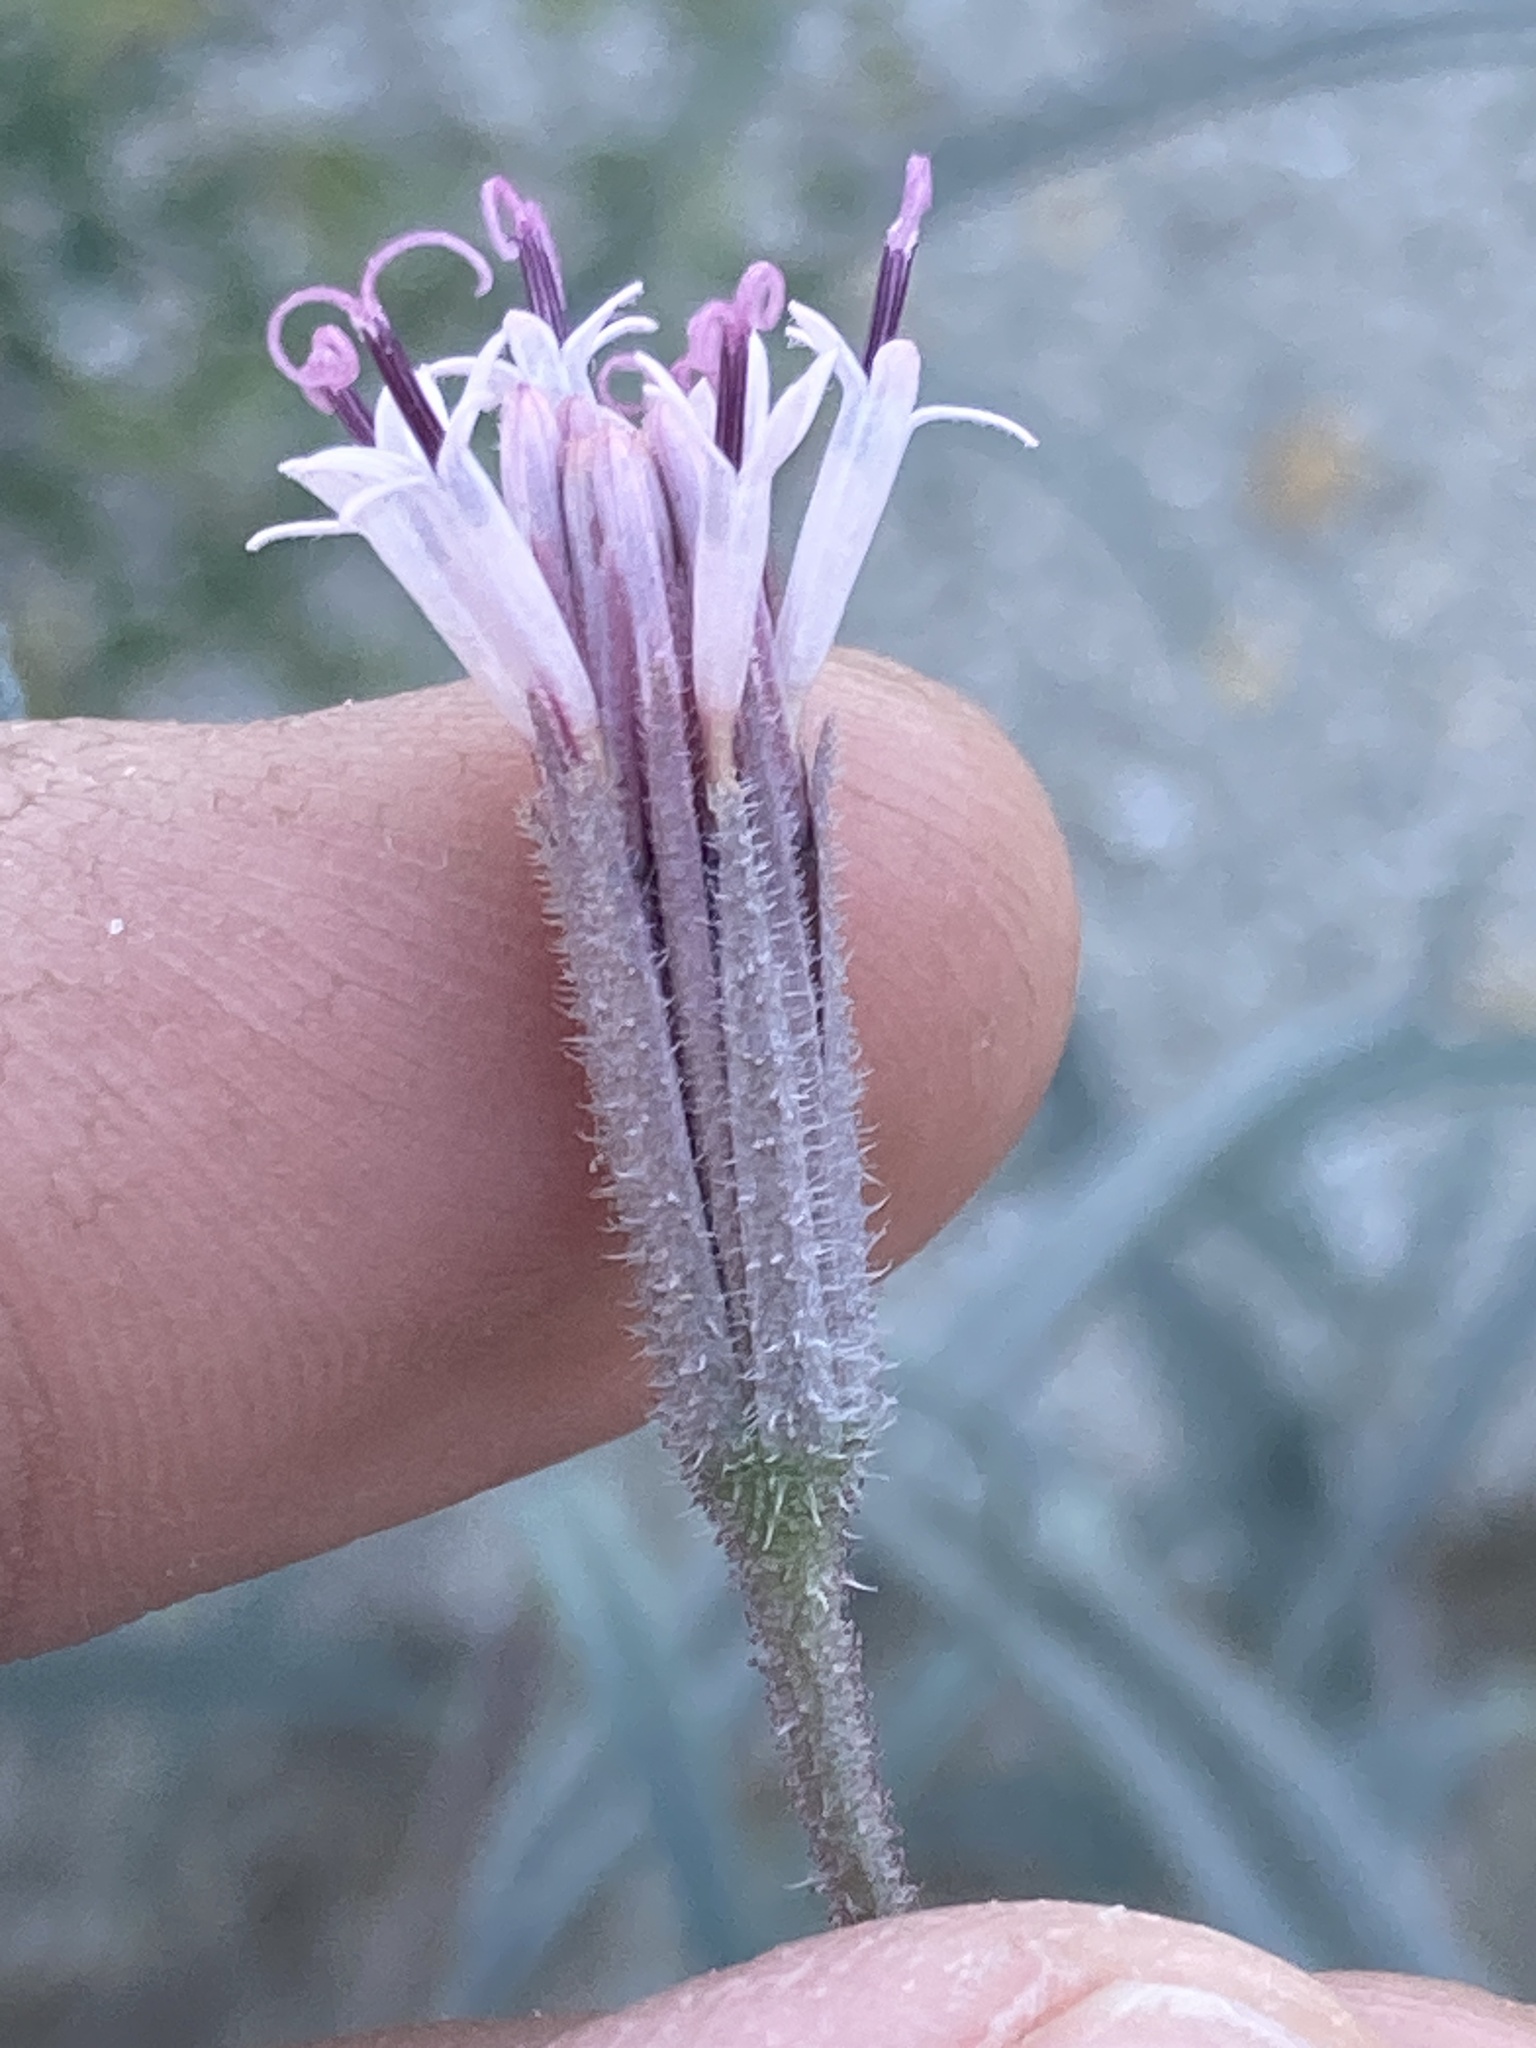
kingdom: Plantae
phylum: Tracheophyta
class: Magnoliopsida
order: Asterales
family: Asteraceae
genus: Palafoxia
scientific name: Palafoxia arida
